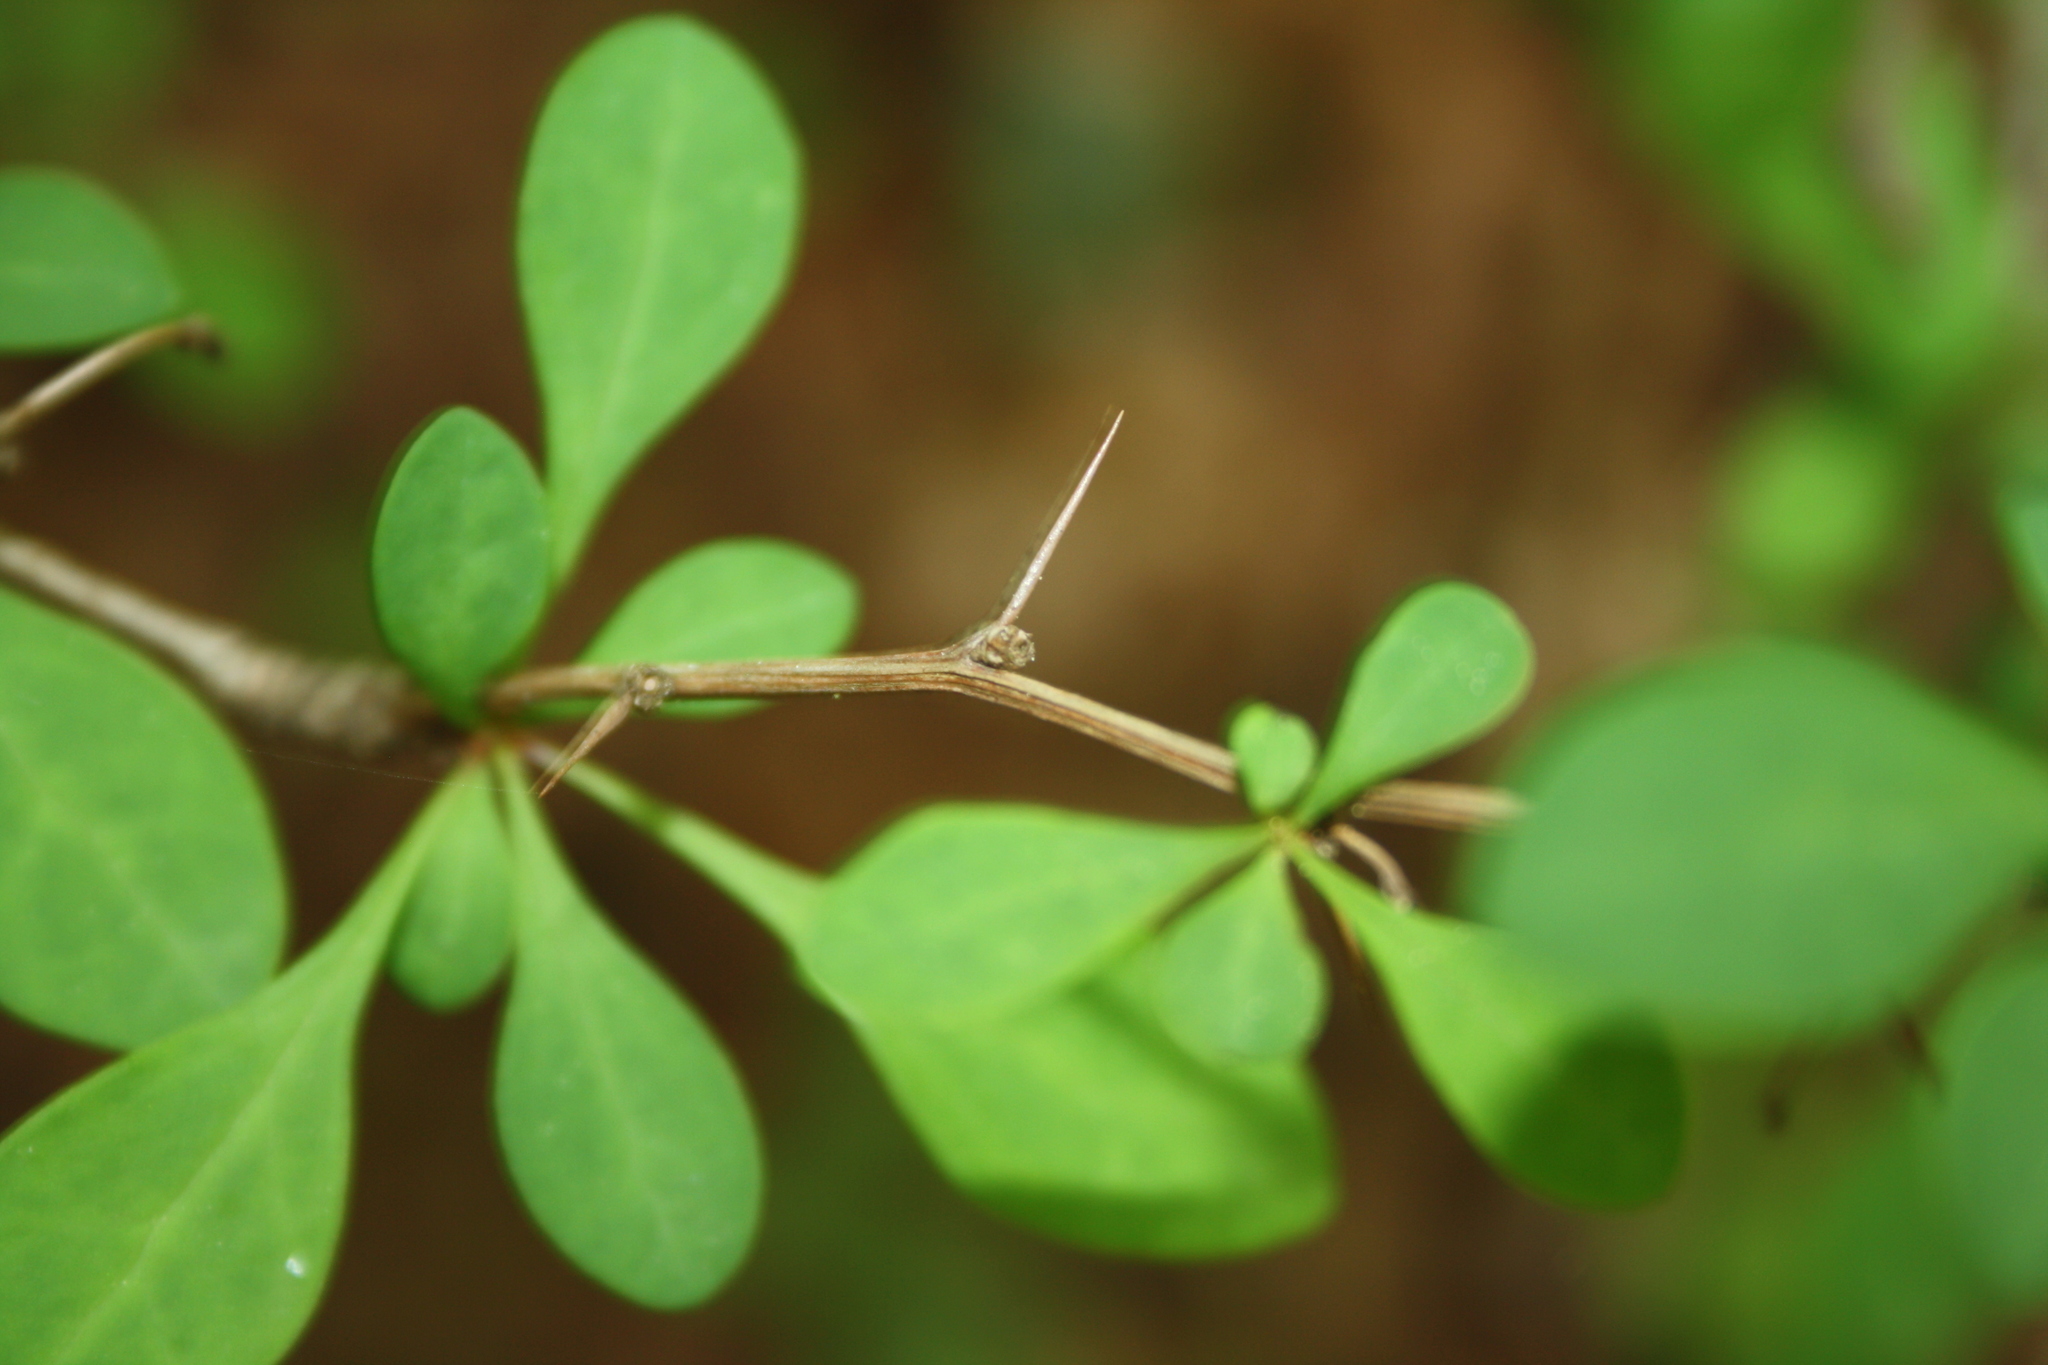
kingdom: Plantae
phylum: Tracheophyta
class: Magnoliopsida
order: Ranunculales
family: Berberidaceae
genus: Berberis
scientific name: Berberis thunbergii
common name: Japanese barberry
